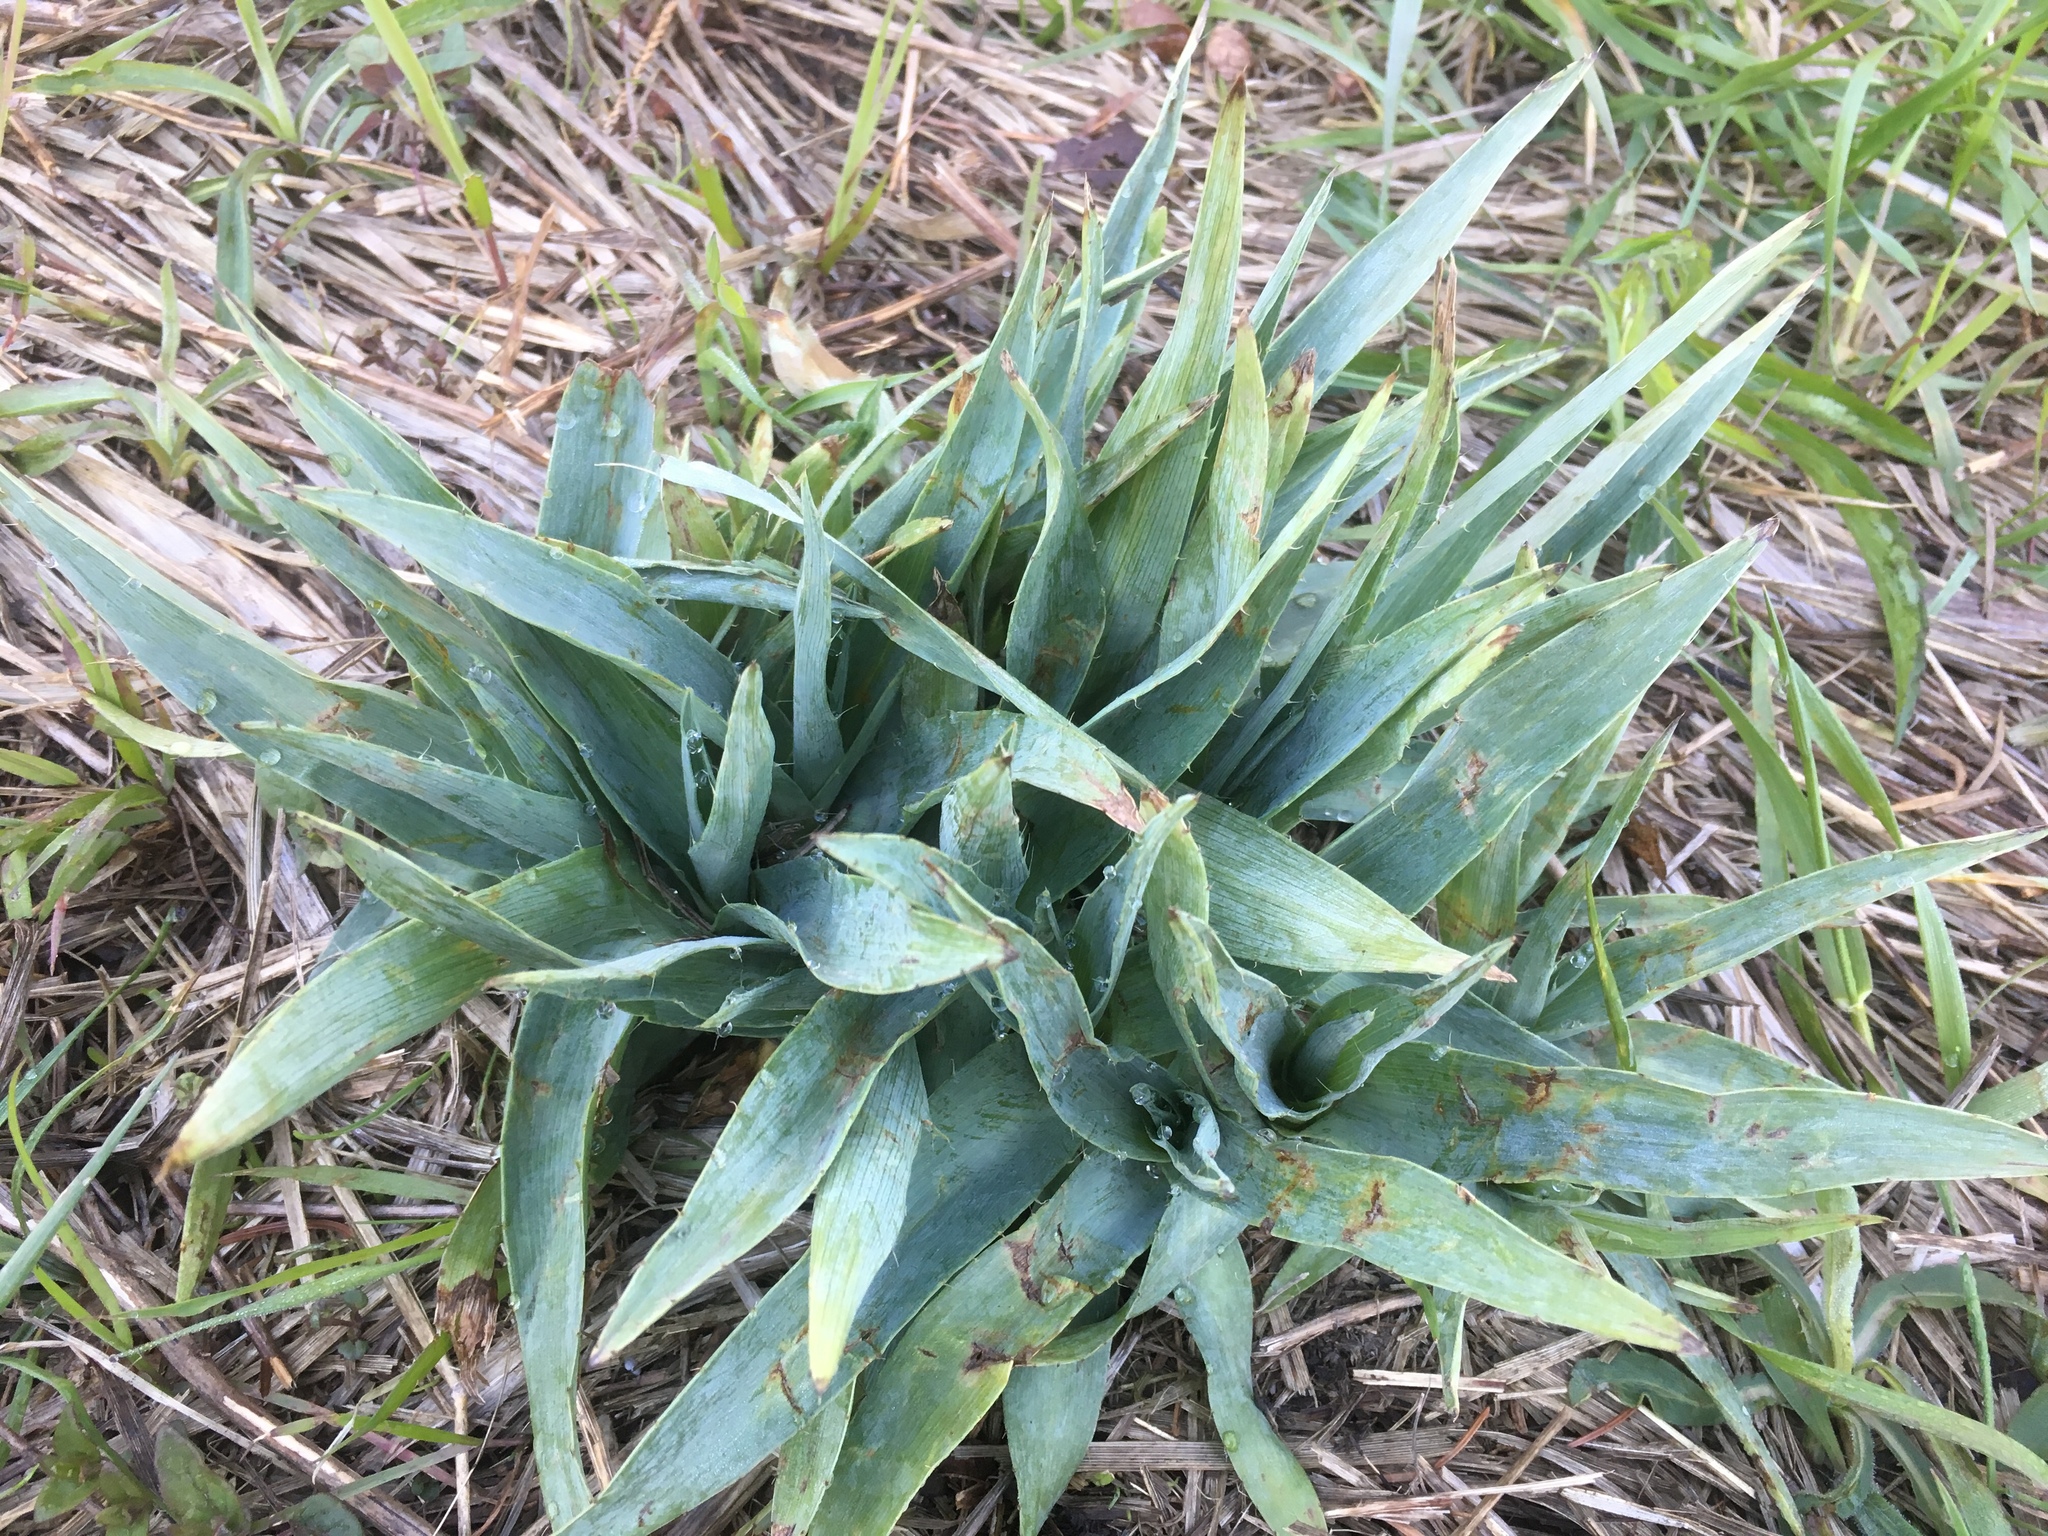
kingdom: Plantae
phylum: Tracheophyta
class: Magnoliopsida
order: Apiales
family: Apiaceae
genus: Eryngium
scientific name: Eryngium yuccifolium
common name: Button eryngo
